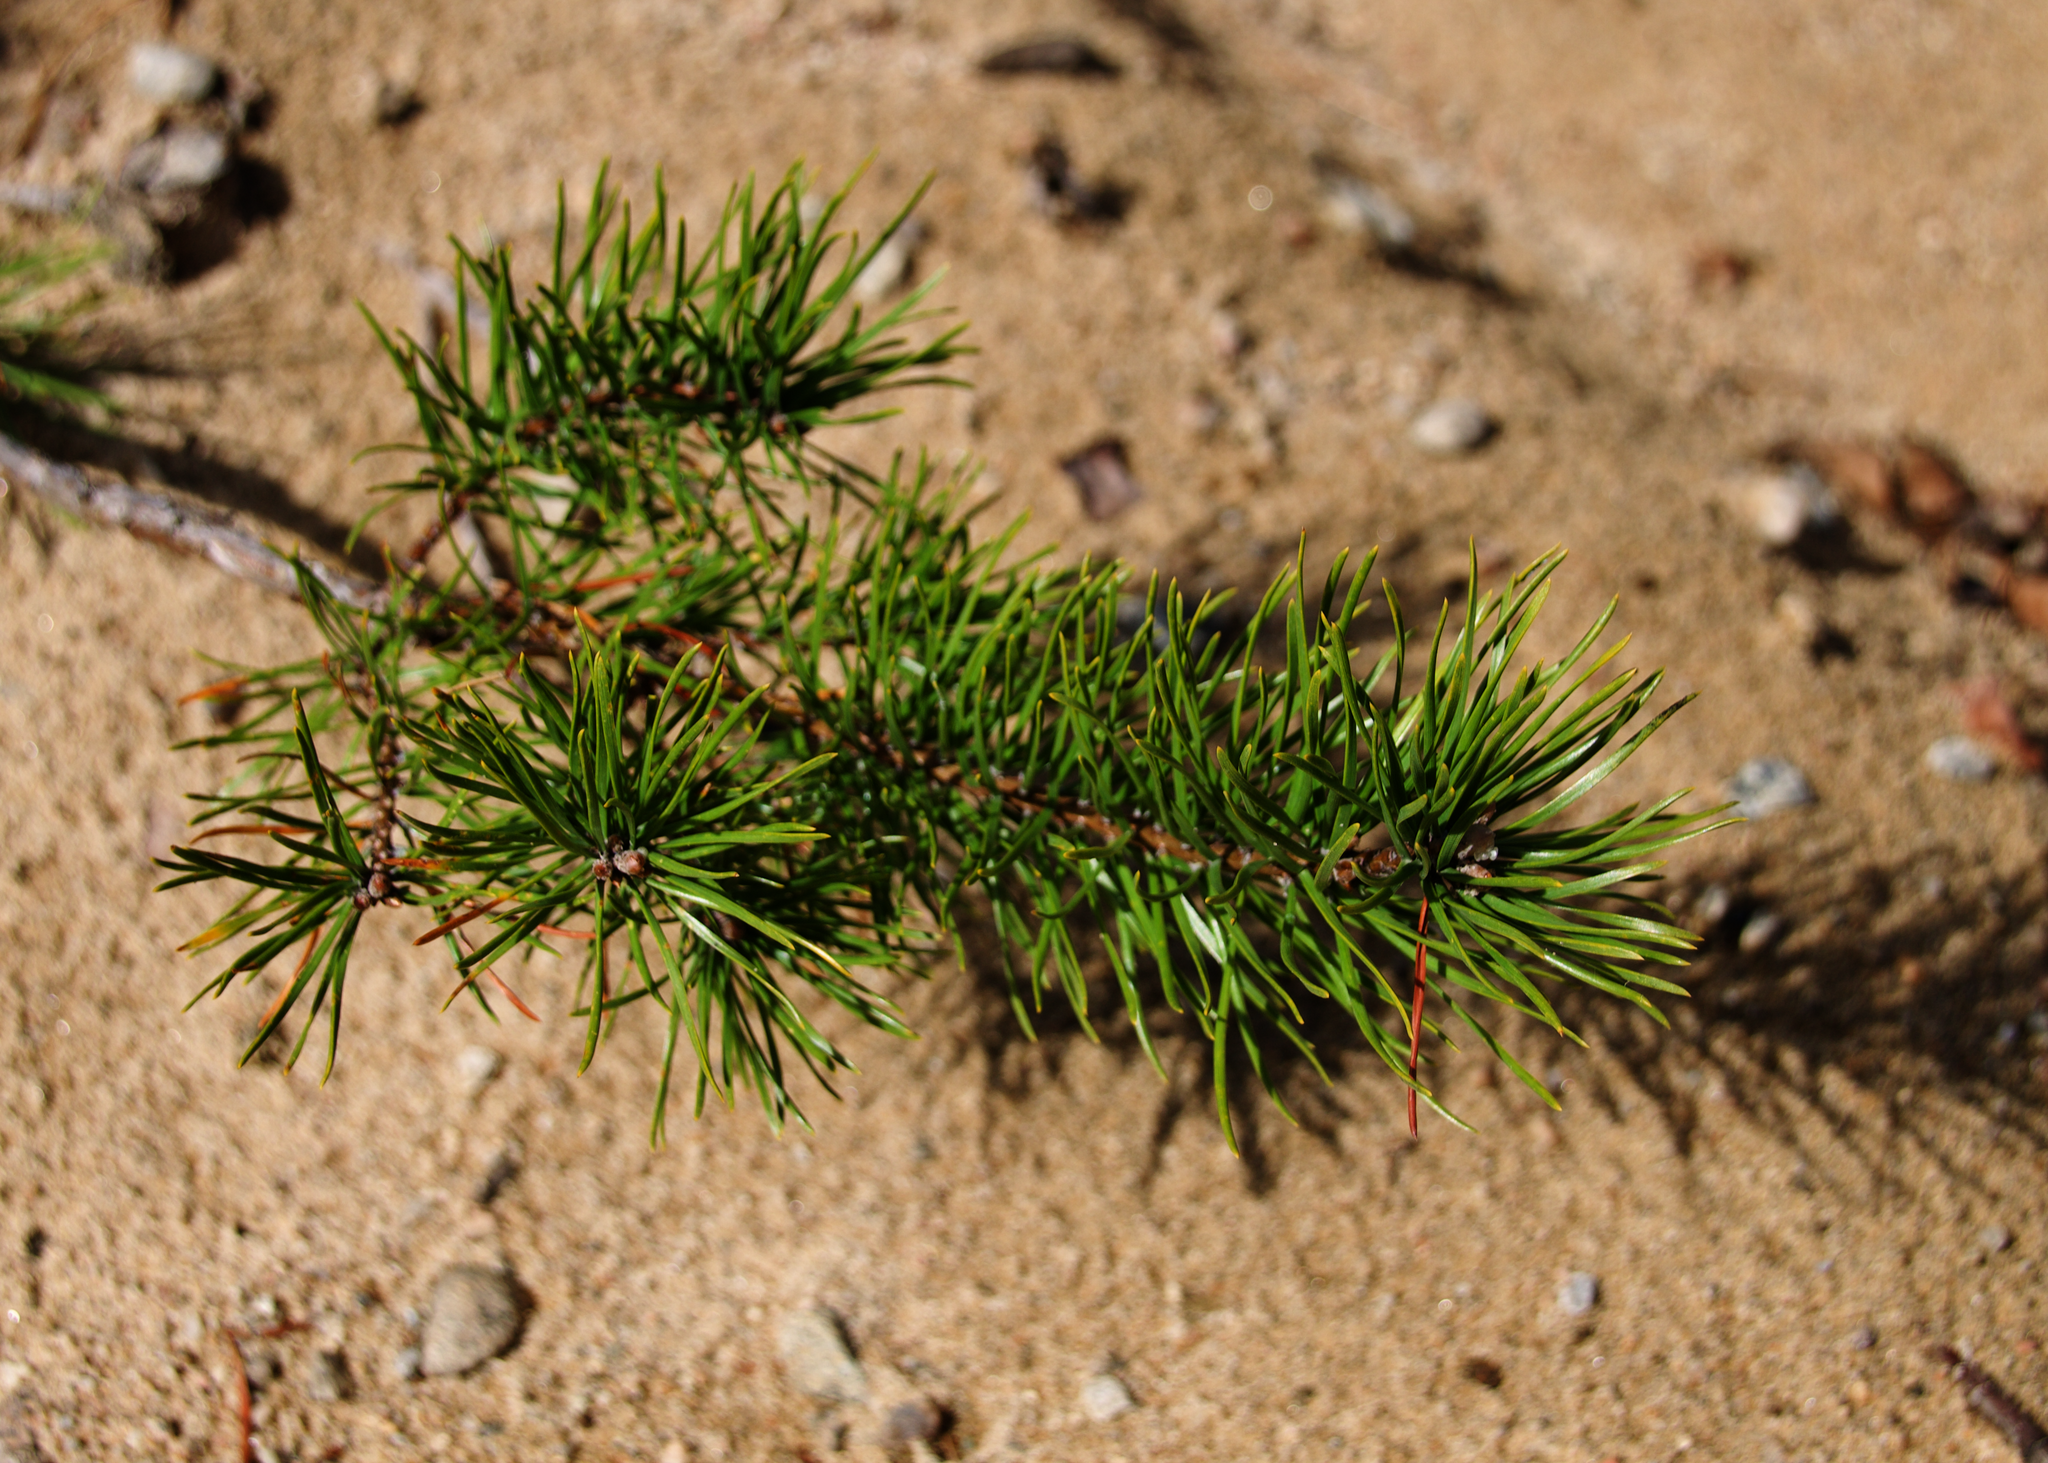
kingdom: Plantae
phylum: Tracheophyta
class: Pinopsida
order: Pinales
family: Pinaceae
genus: Pinus
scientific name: Pinus banksiana
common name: Jack pine
